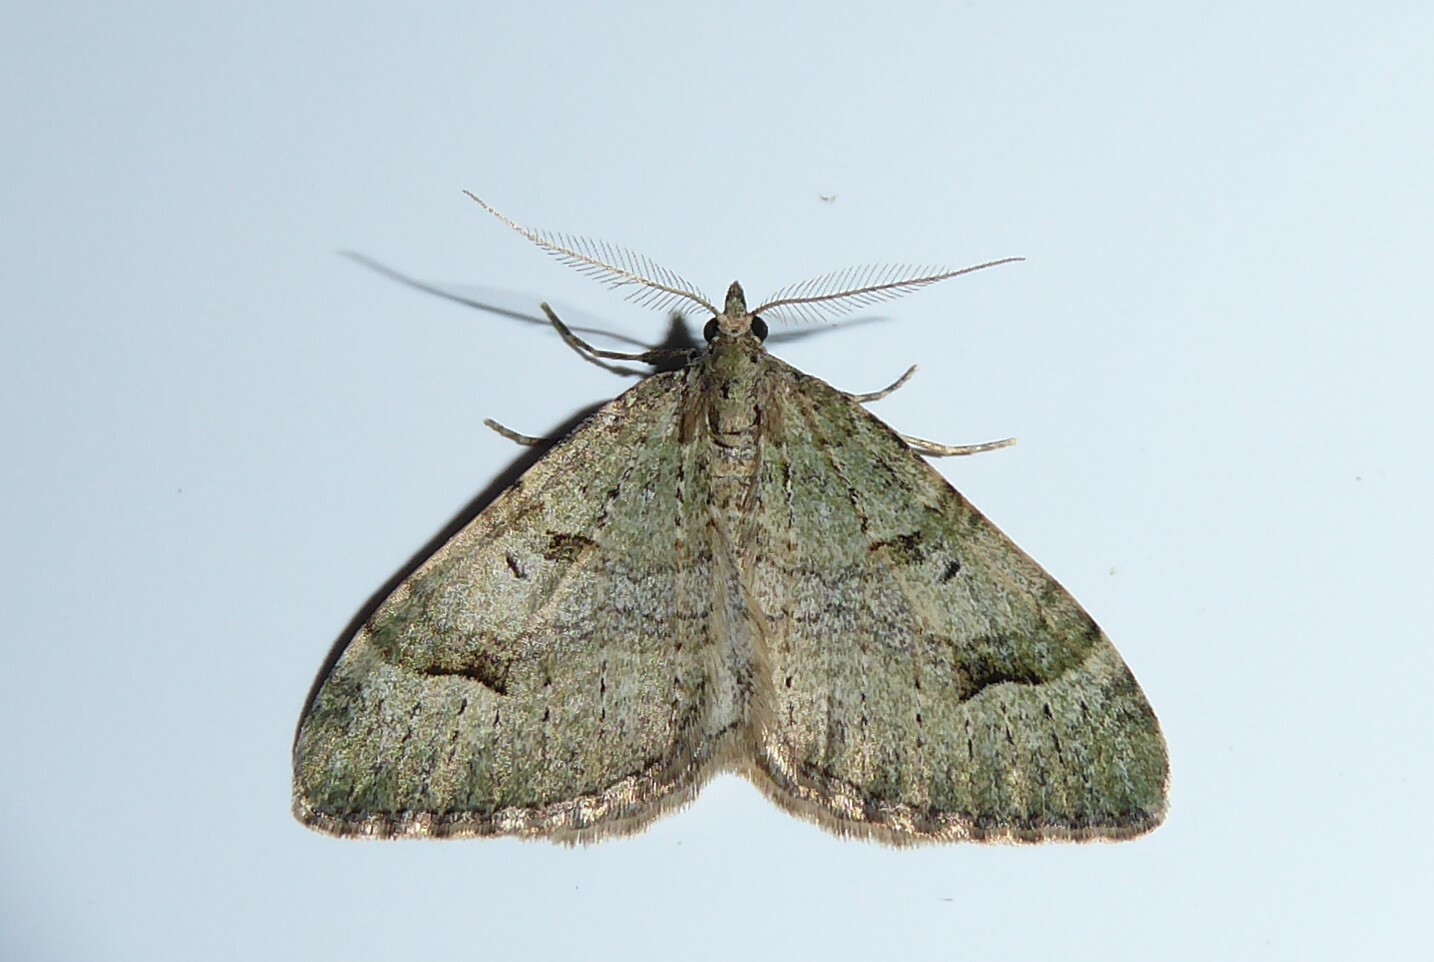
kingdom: Animalia
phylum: Arthropoda
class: Insecta
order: Lepidoptera
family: Geometridae
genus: Epyaxa
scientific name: Epyaxa rosearia
